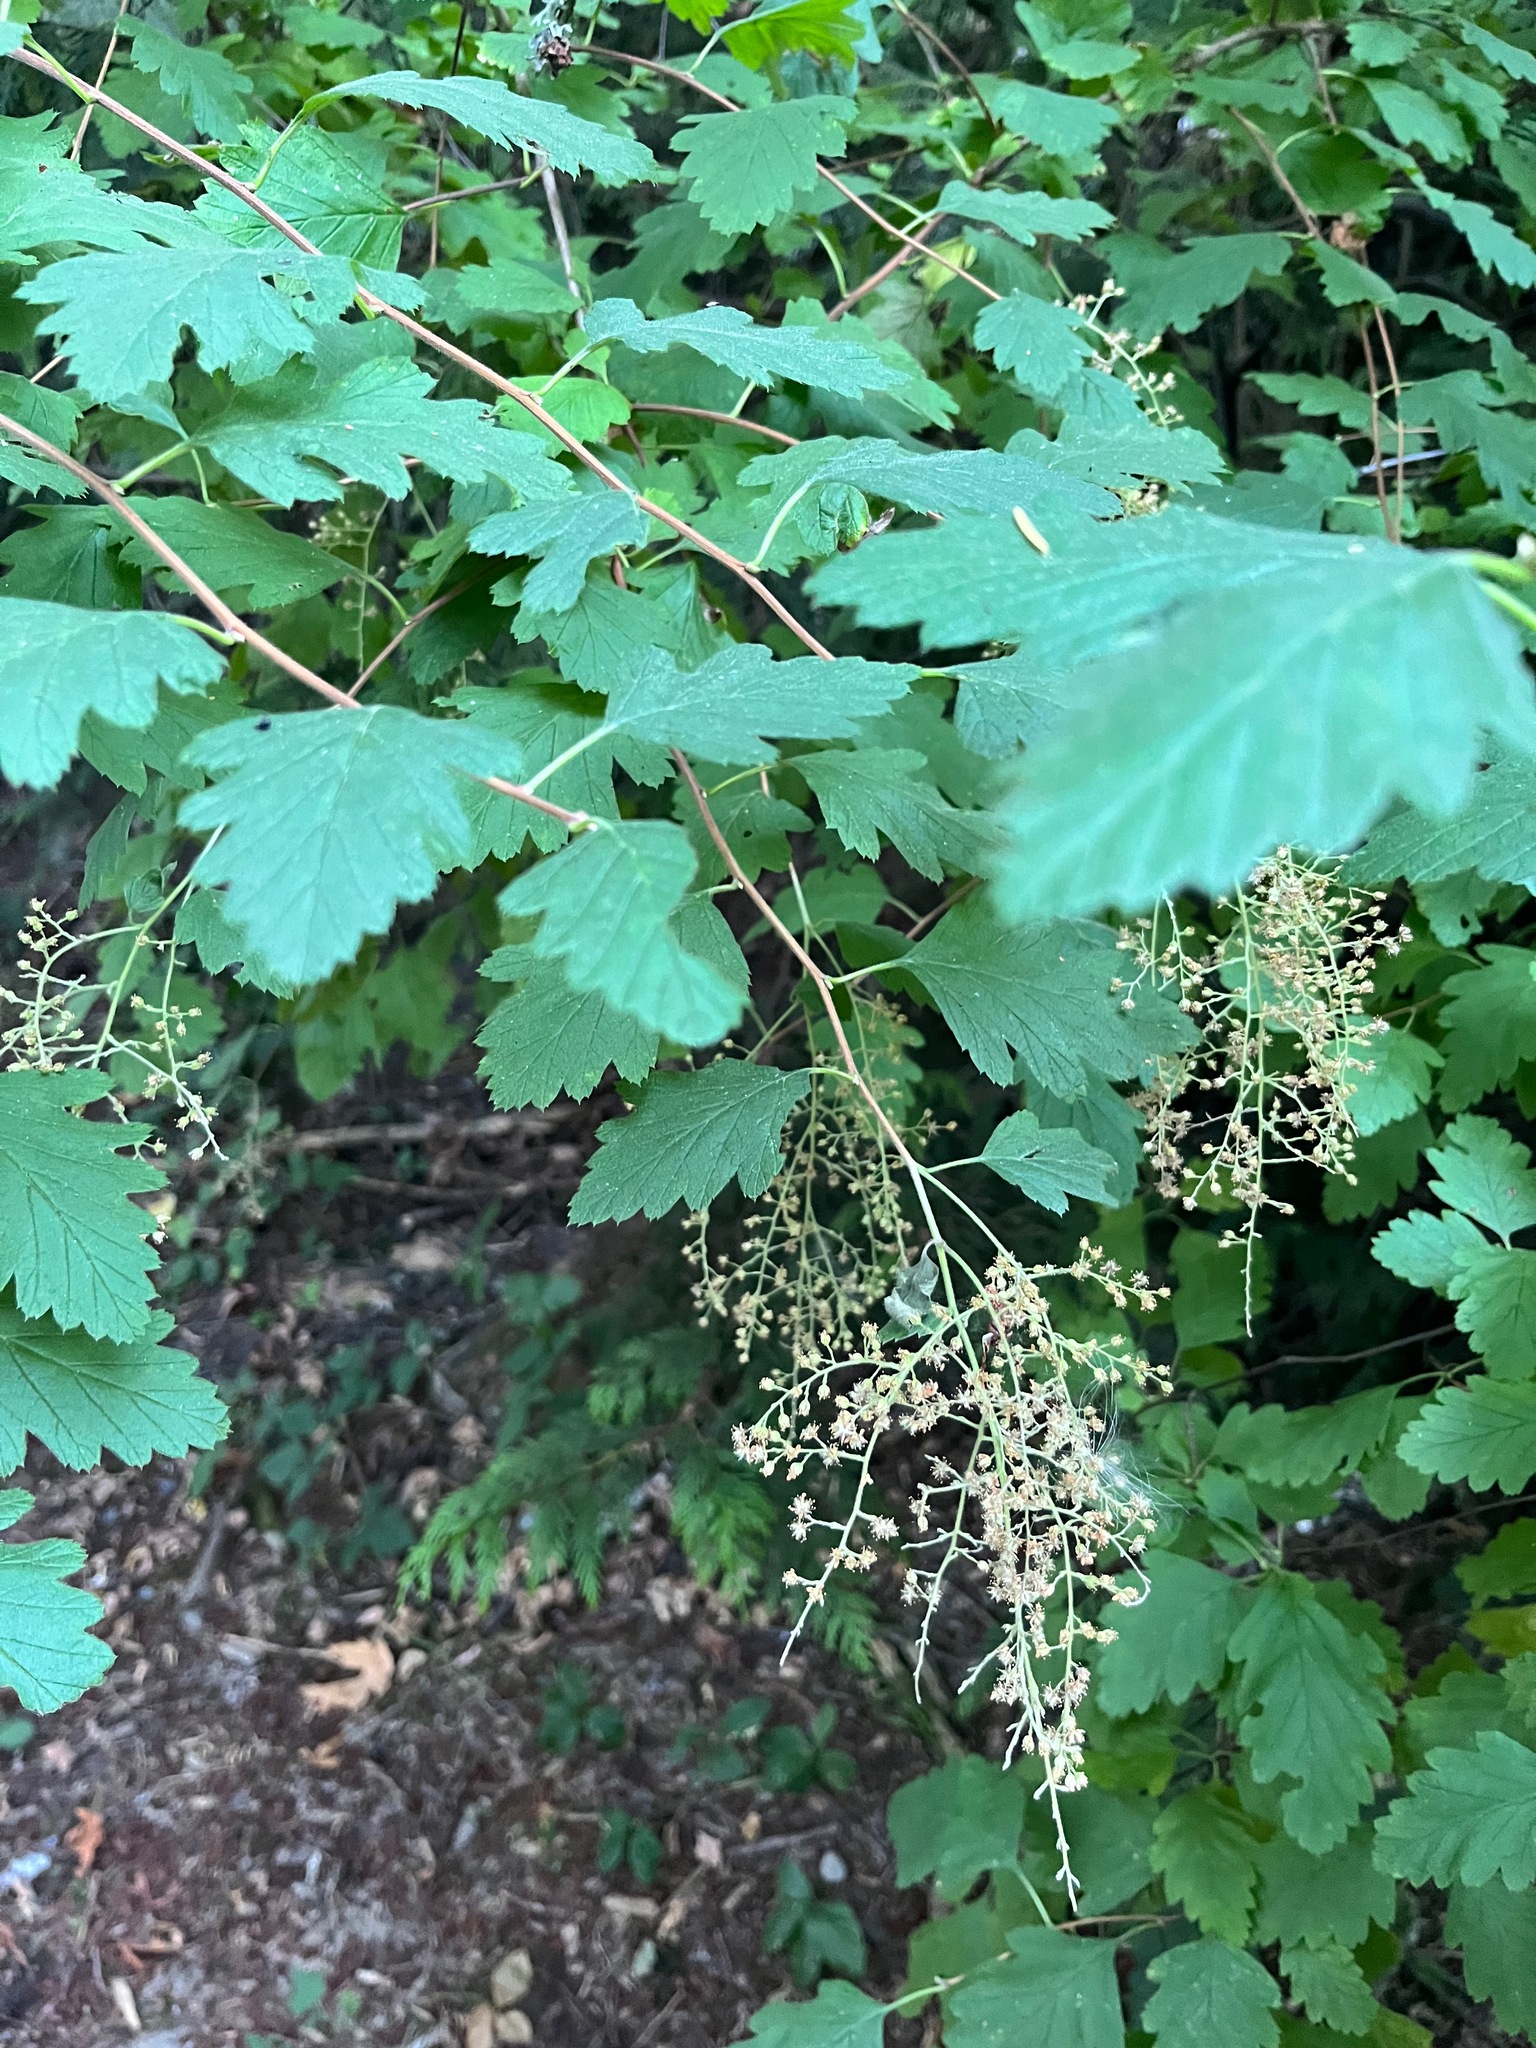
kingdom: Plantae
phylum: Tracheophyta
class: Magnoliopsida
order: Rosales
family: Rosaceae
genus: Holodiscus
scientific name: Holodiscus discolor
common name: Oceanspray
